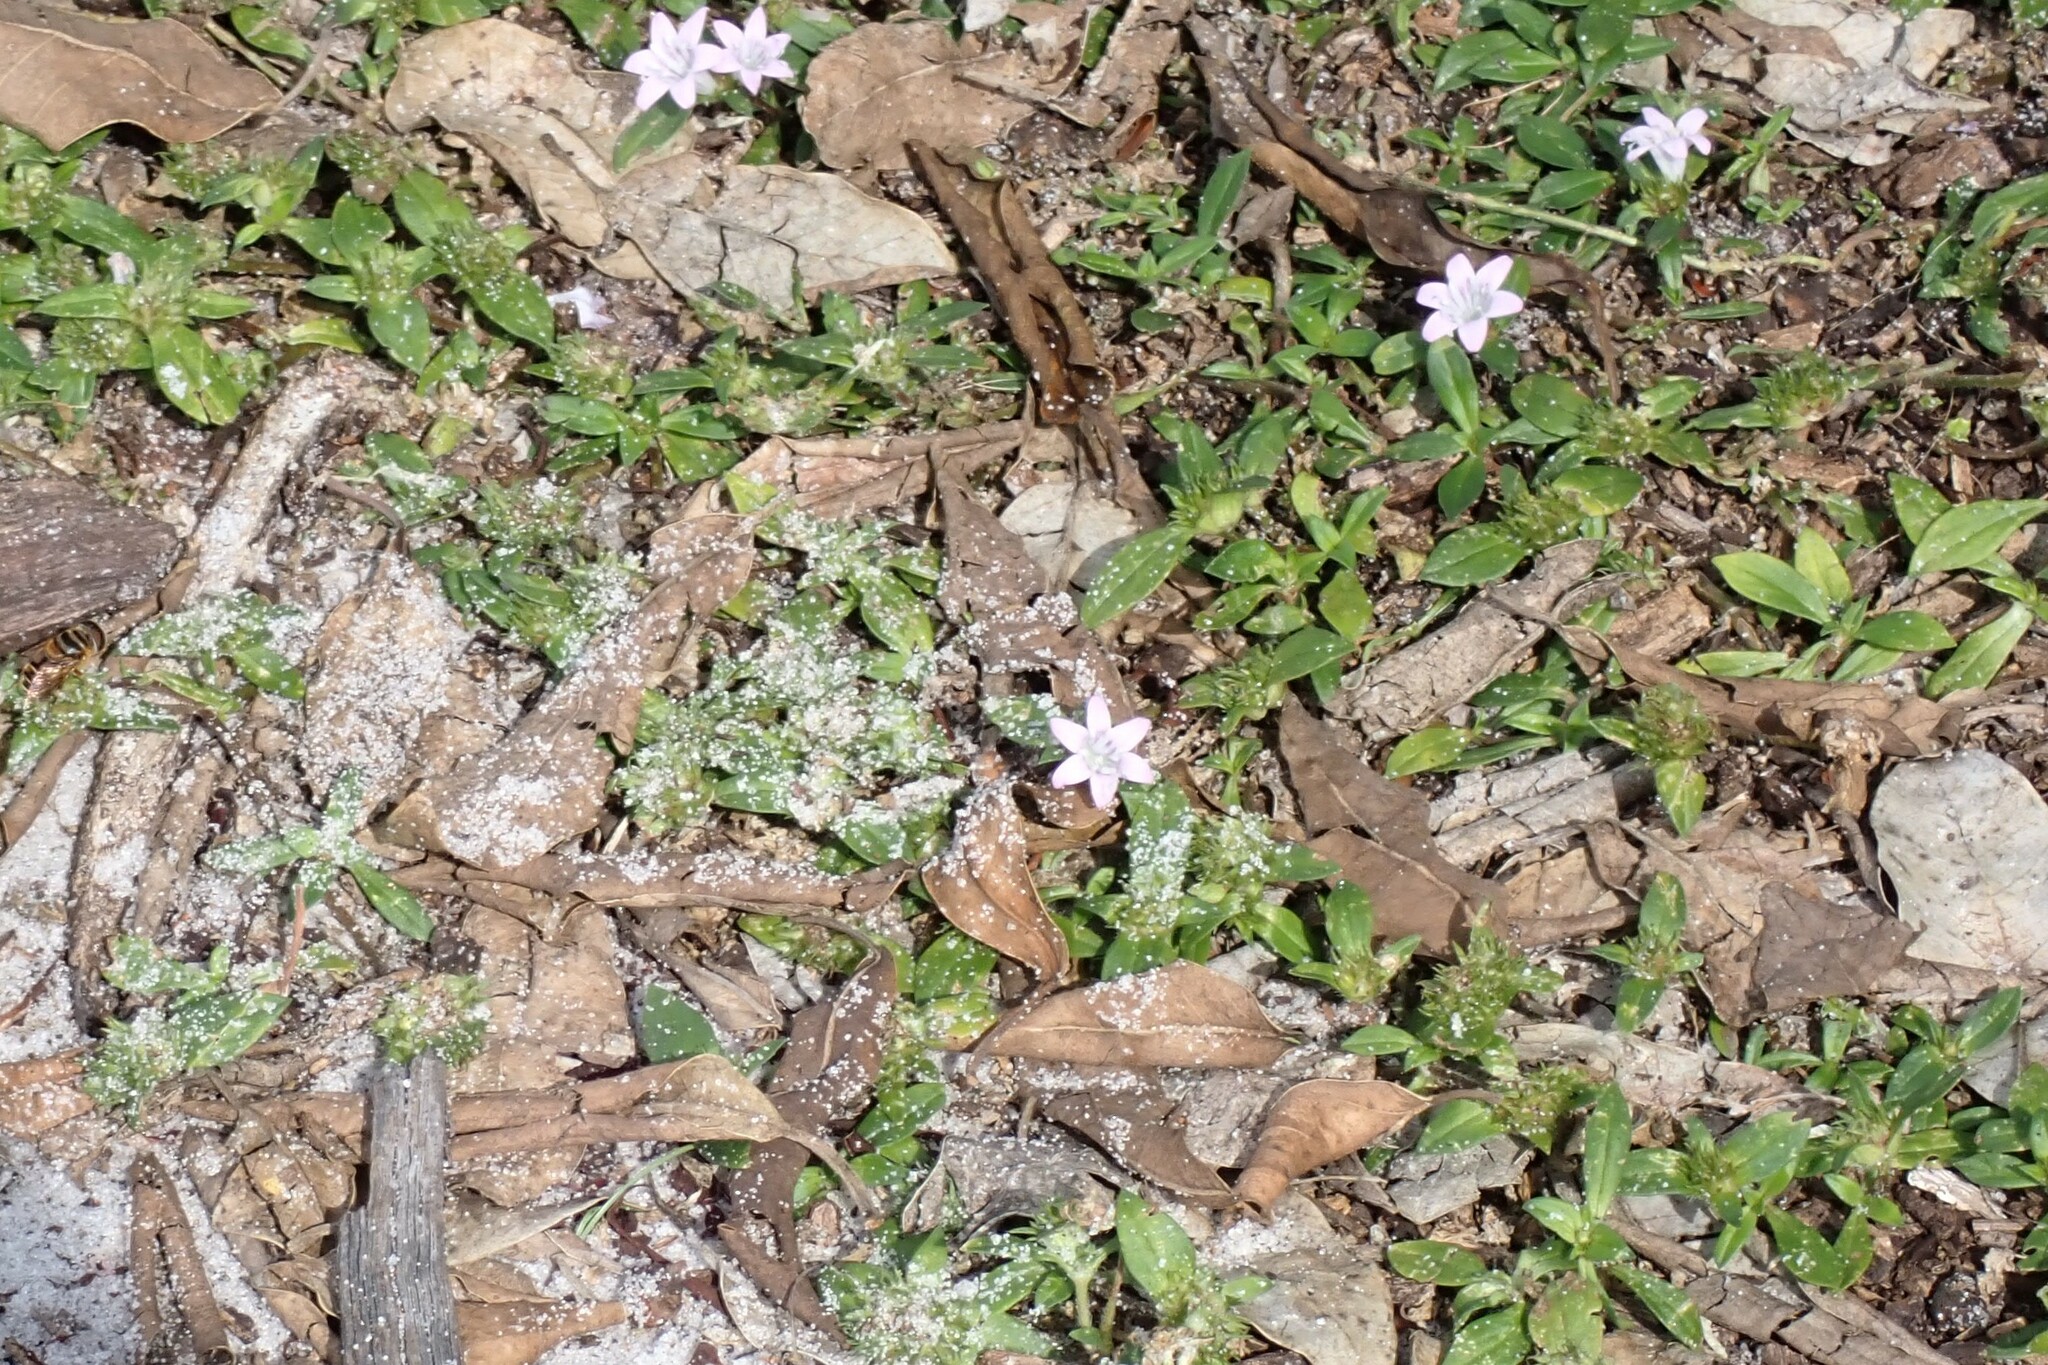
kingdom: Plantae
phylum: Tracheophyta
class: Magnoliopsida
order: Gentianales
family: Rubiaceae
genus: Richardia
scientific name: Richardia grandiflora
